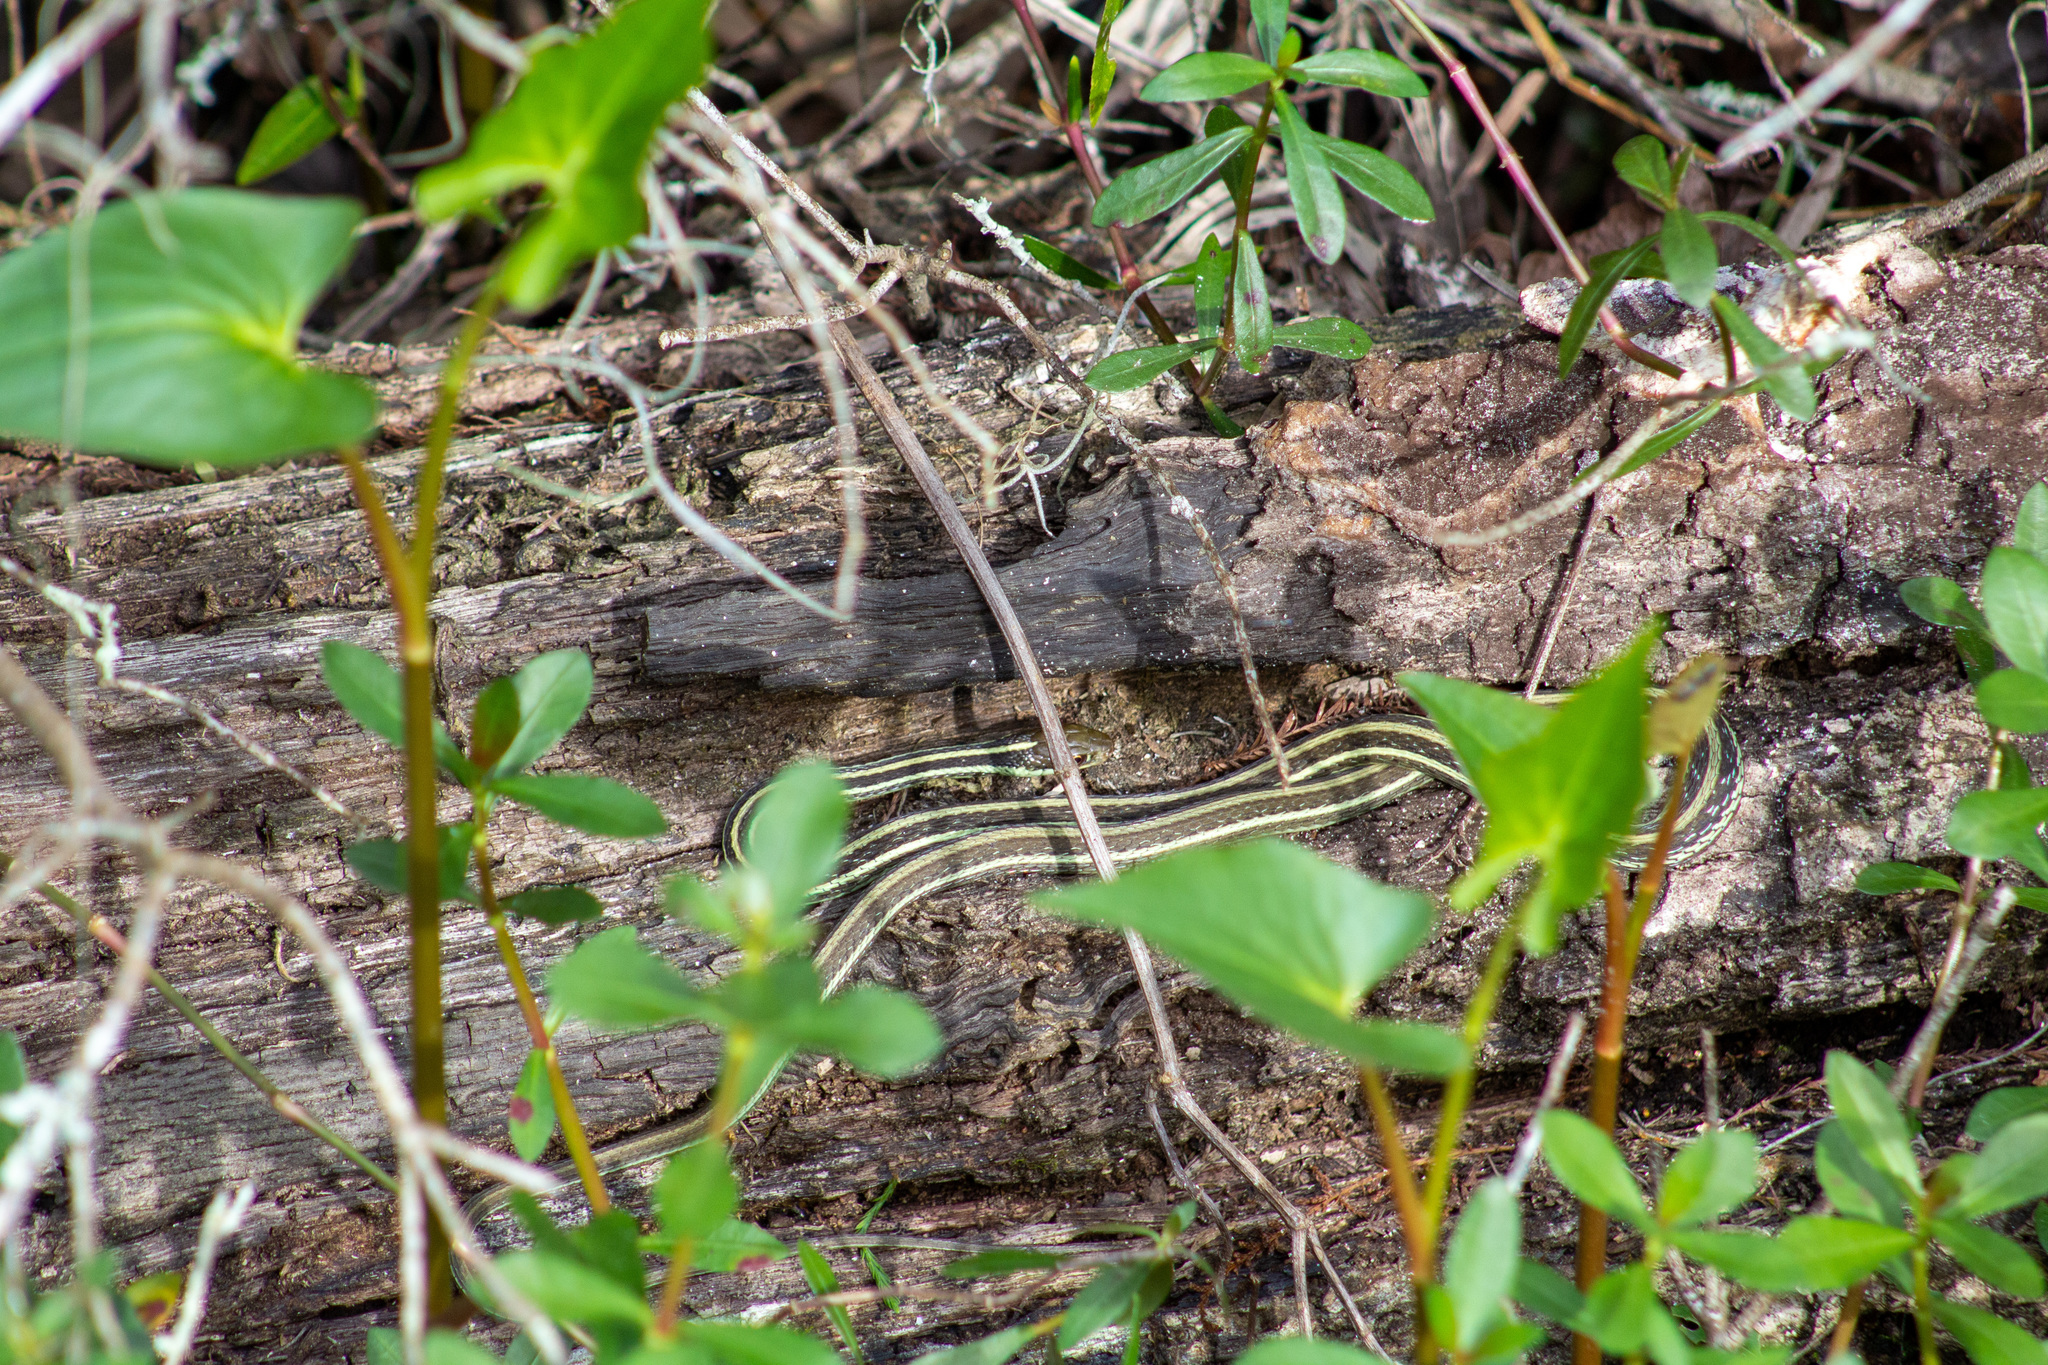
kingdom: Animalia
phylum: Chordata
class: Squamata
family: Colubridae
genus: Thamnophis
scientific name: Thamnophis proximus
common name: Western ribbon snake
